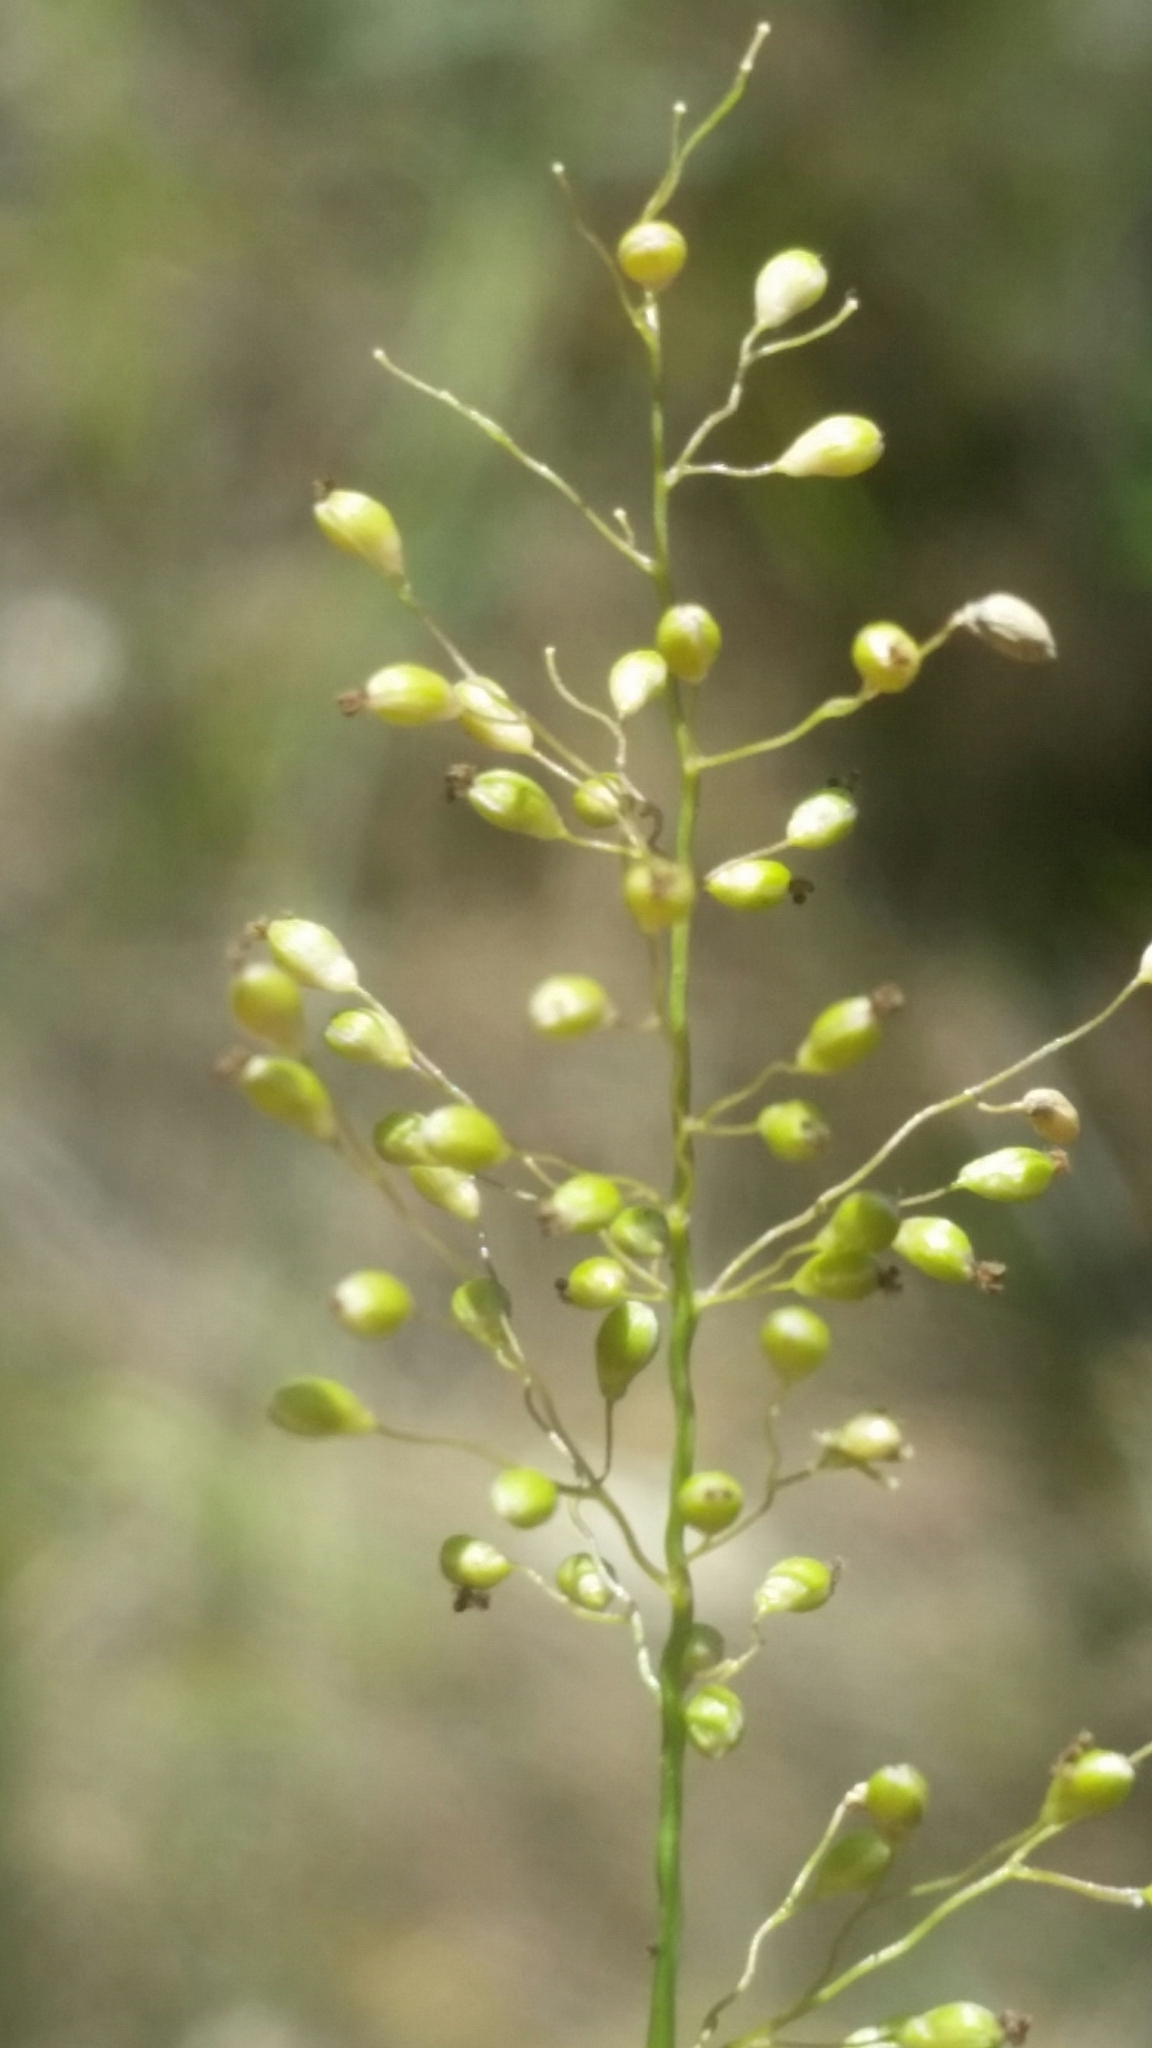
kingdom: Plantae
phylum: Tracheophyta
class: Liliopsida
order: Poales
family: Poaceae
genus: Dichanthelium
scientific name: Dichanthelium caerulescens
